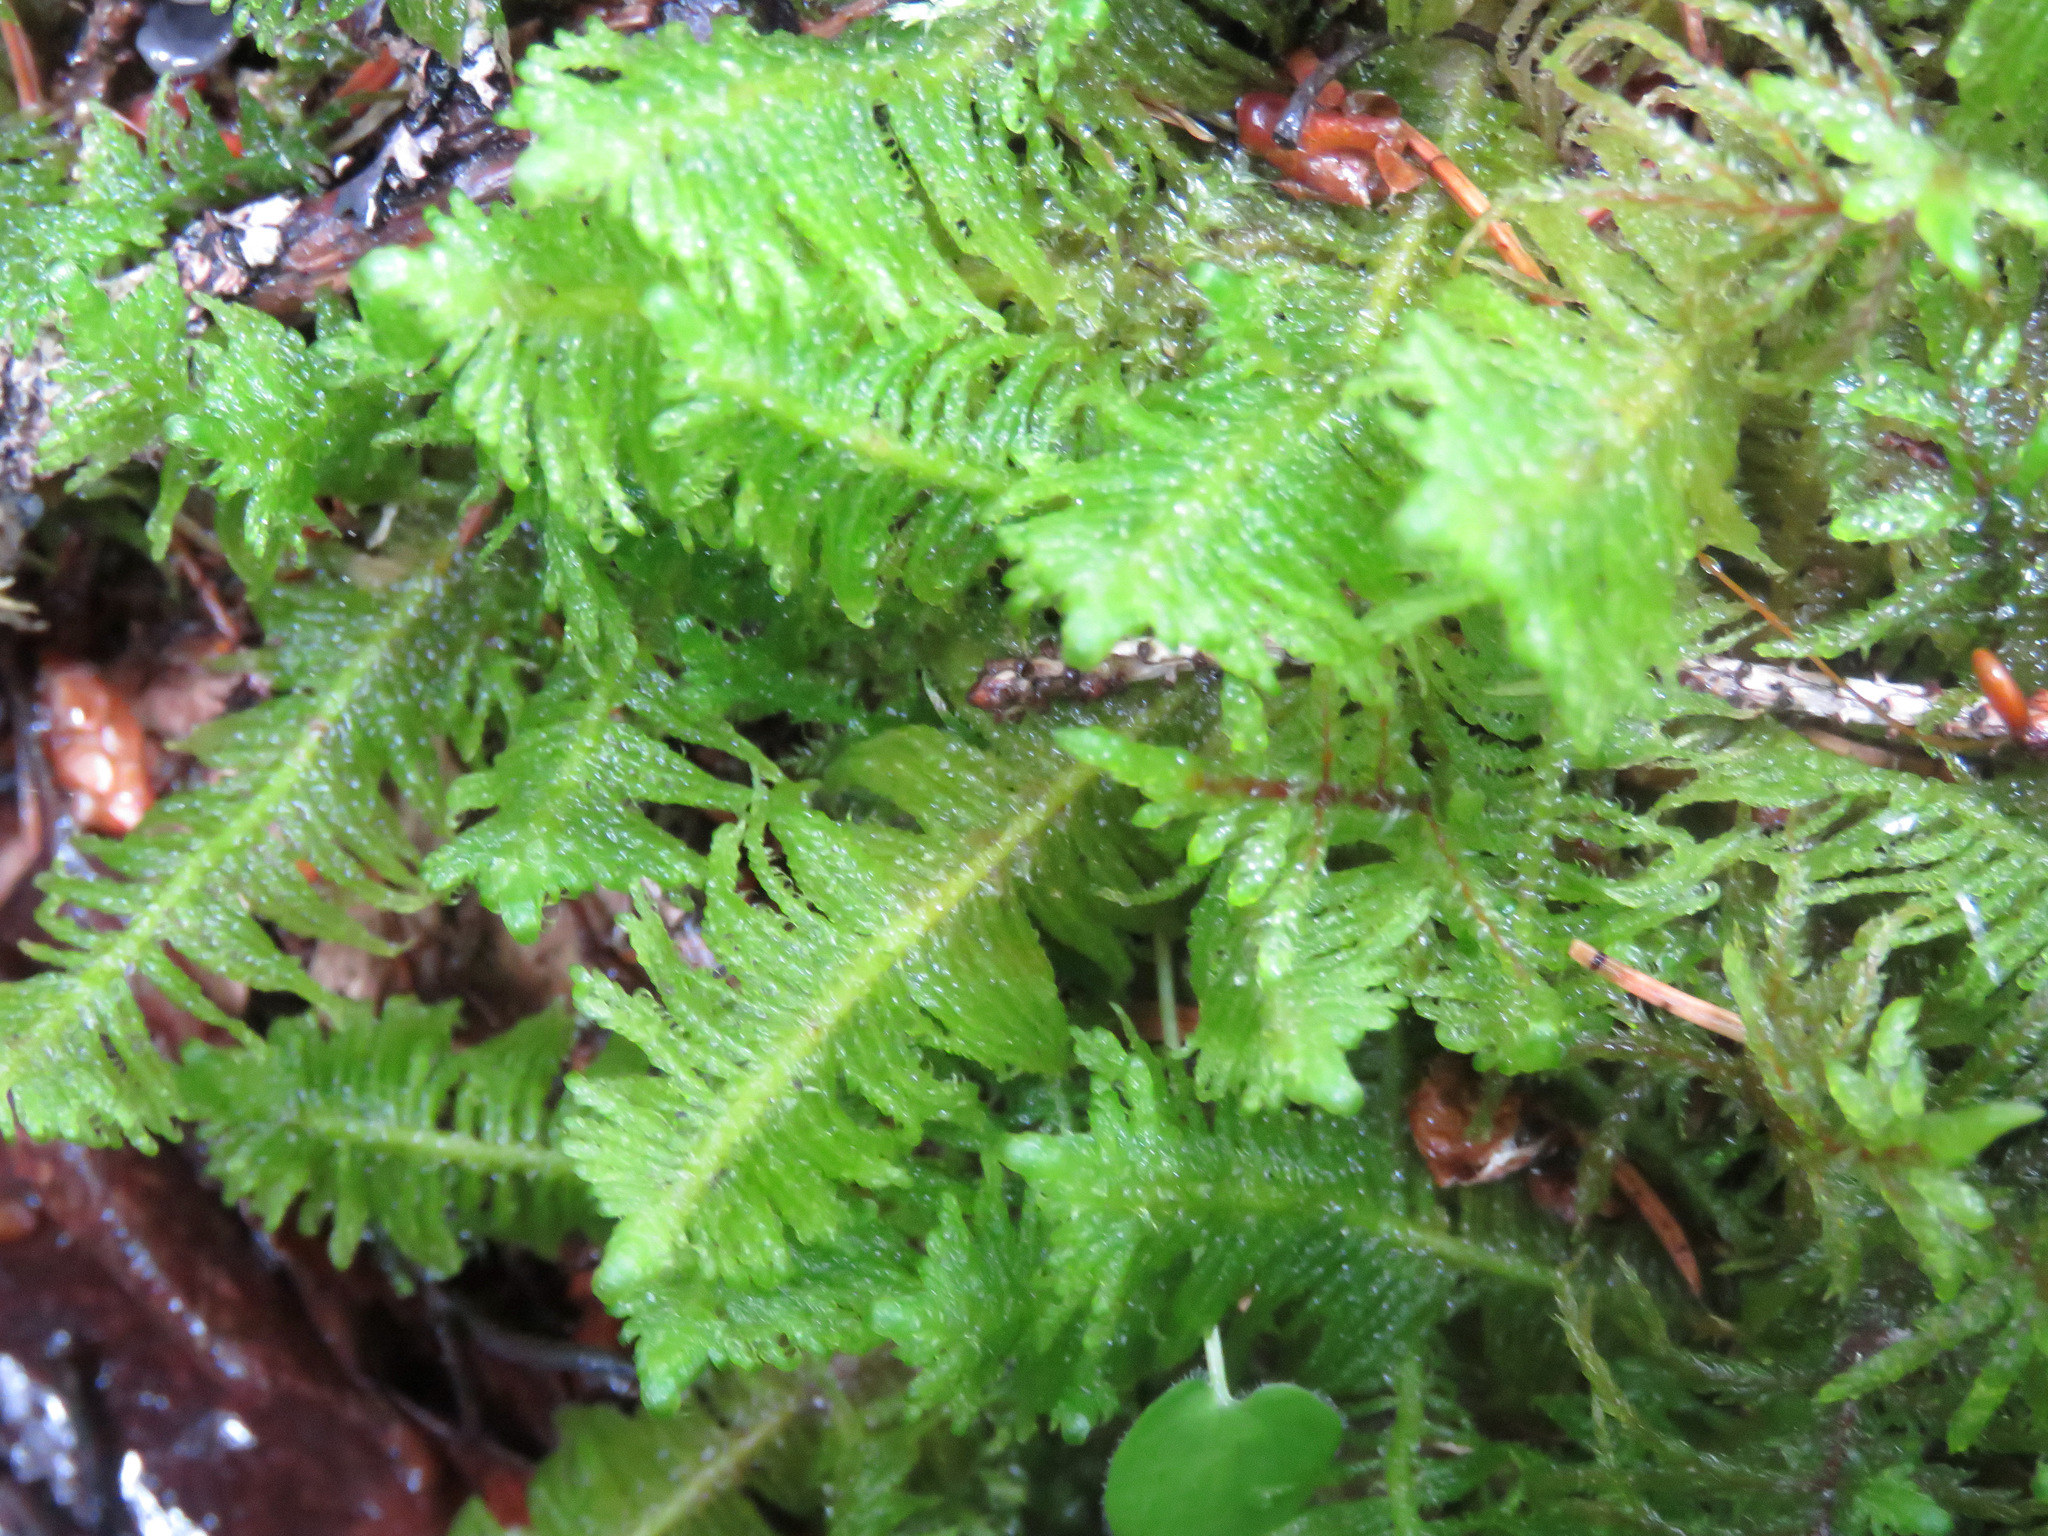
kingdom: Plantae
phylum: Bryophyta
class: Bryopsida
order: Hypnales
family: Pylaisiaceae
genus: Ptilium
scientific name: Ptilium crista-castrensis
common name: Knight's plume moss
